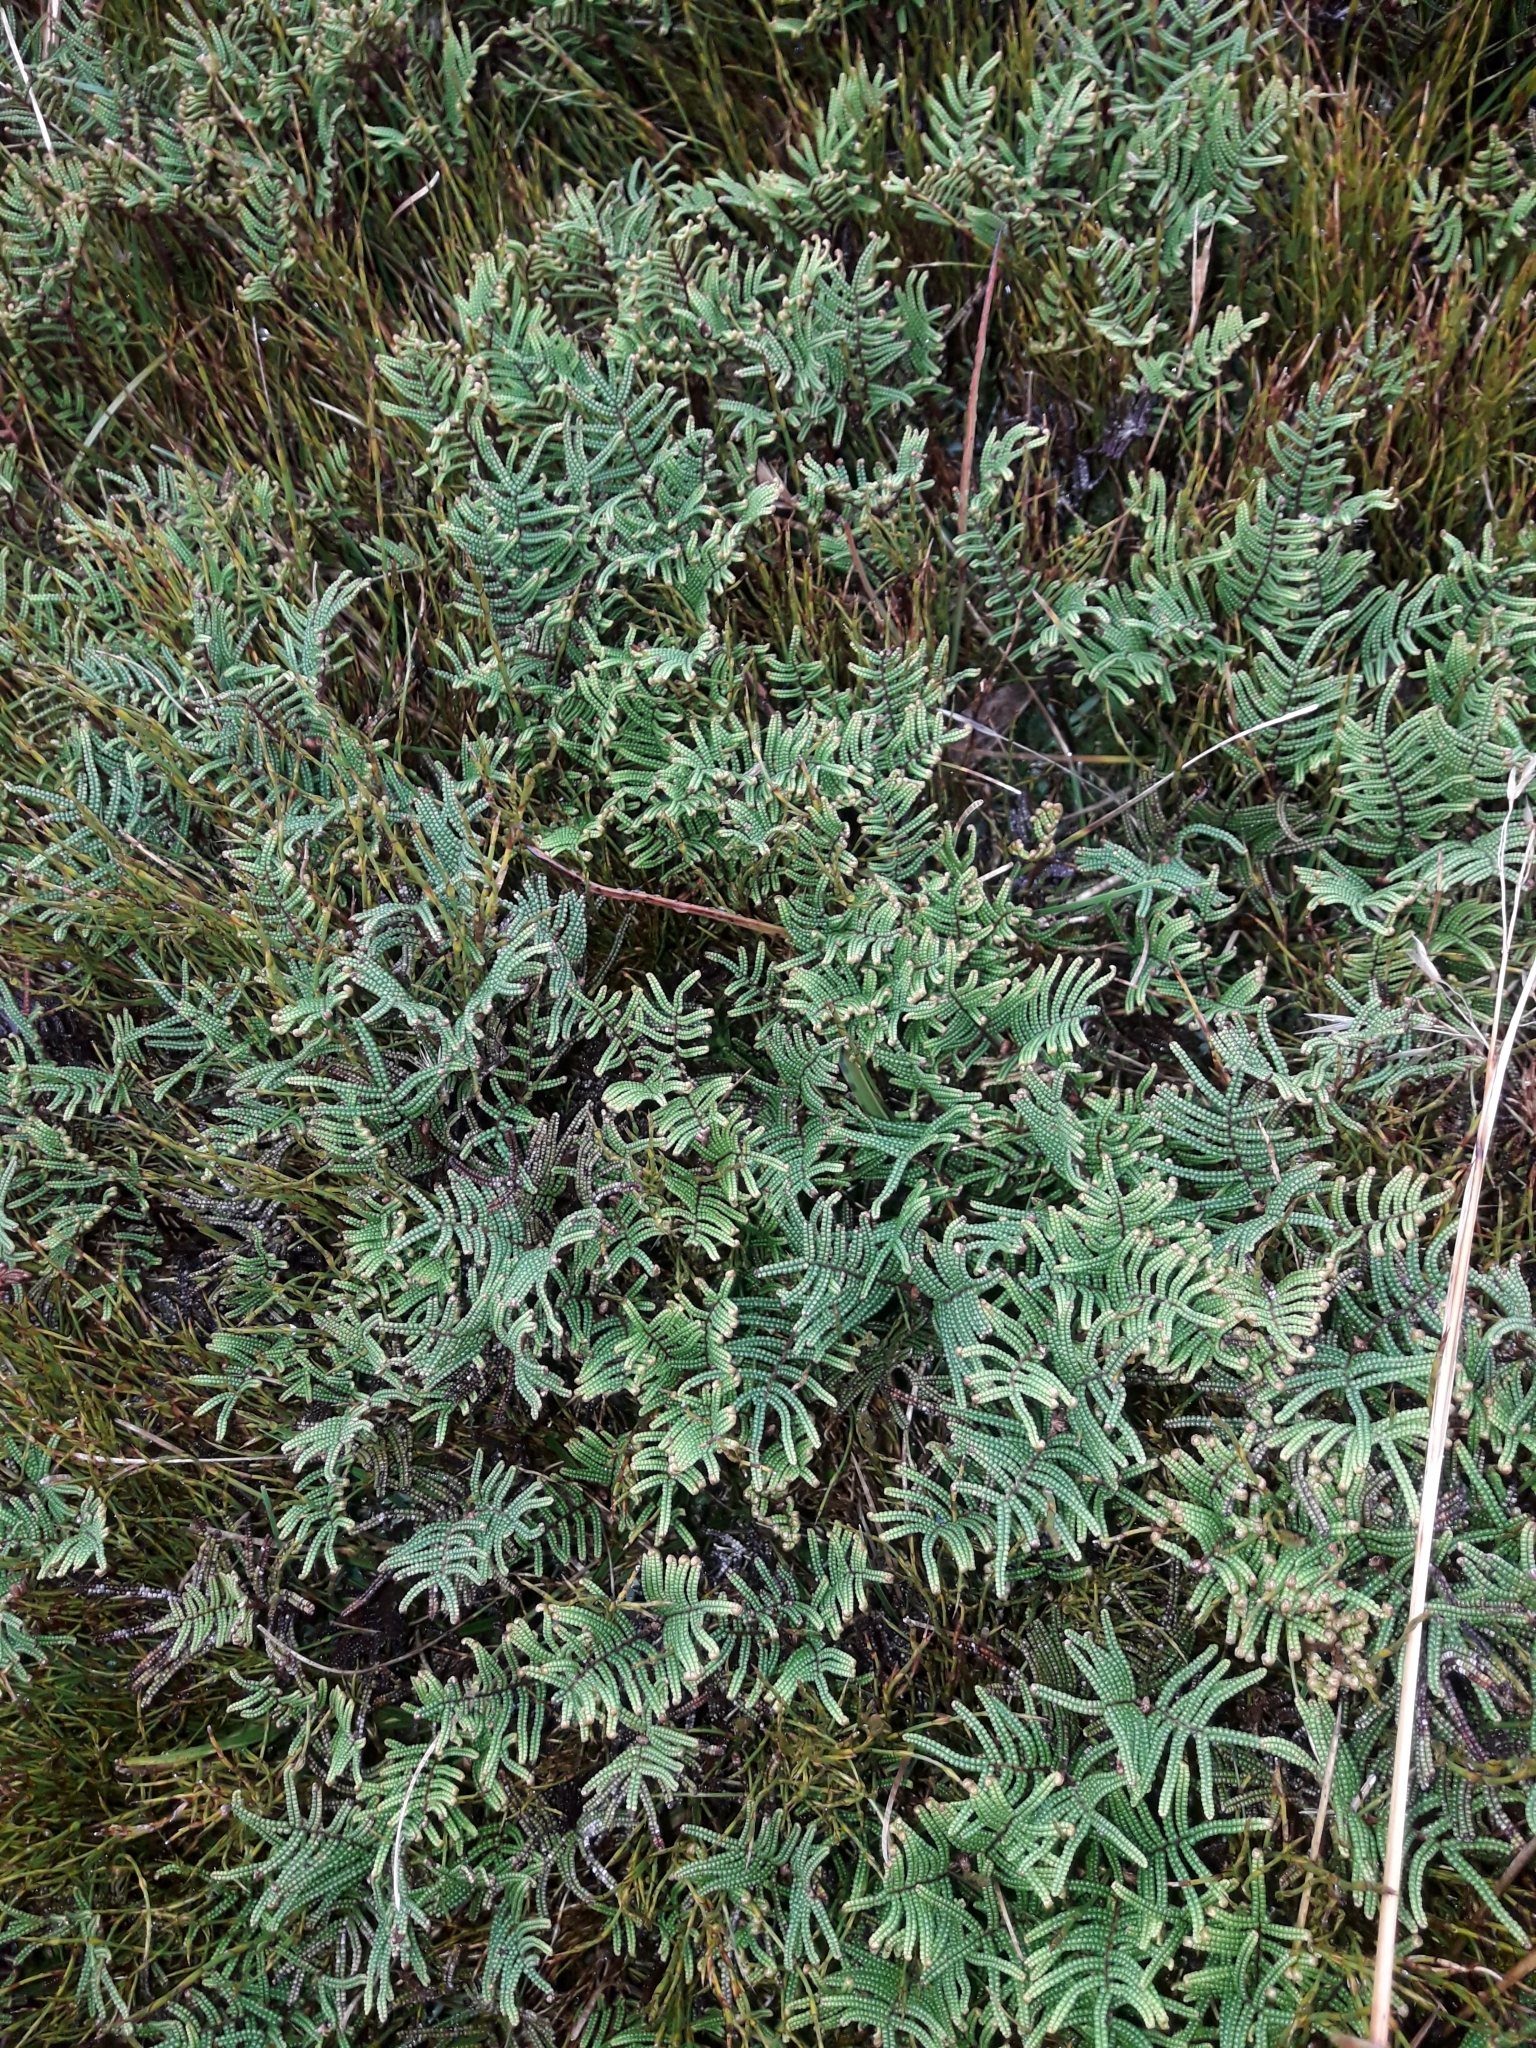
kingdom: Plantae
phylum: Tracheophyta
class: Polypodiopsida
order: Gleicheniales
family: Gleicheniaceae
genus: Gleichenia
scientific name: Gleichenia alpina
